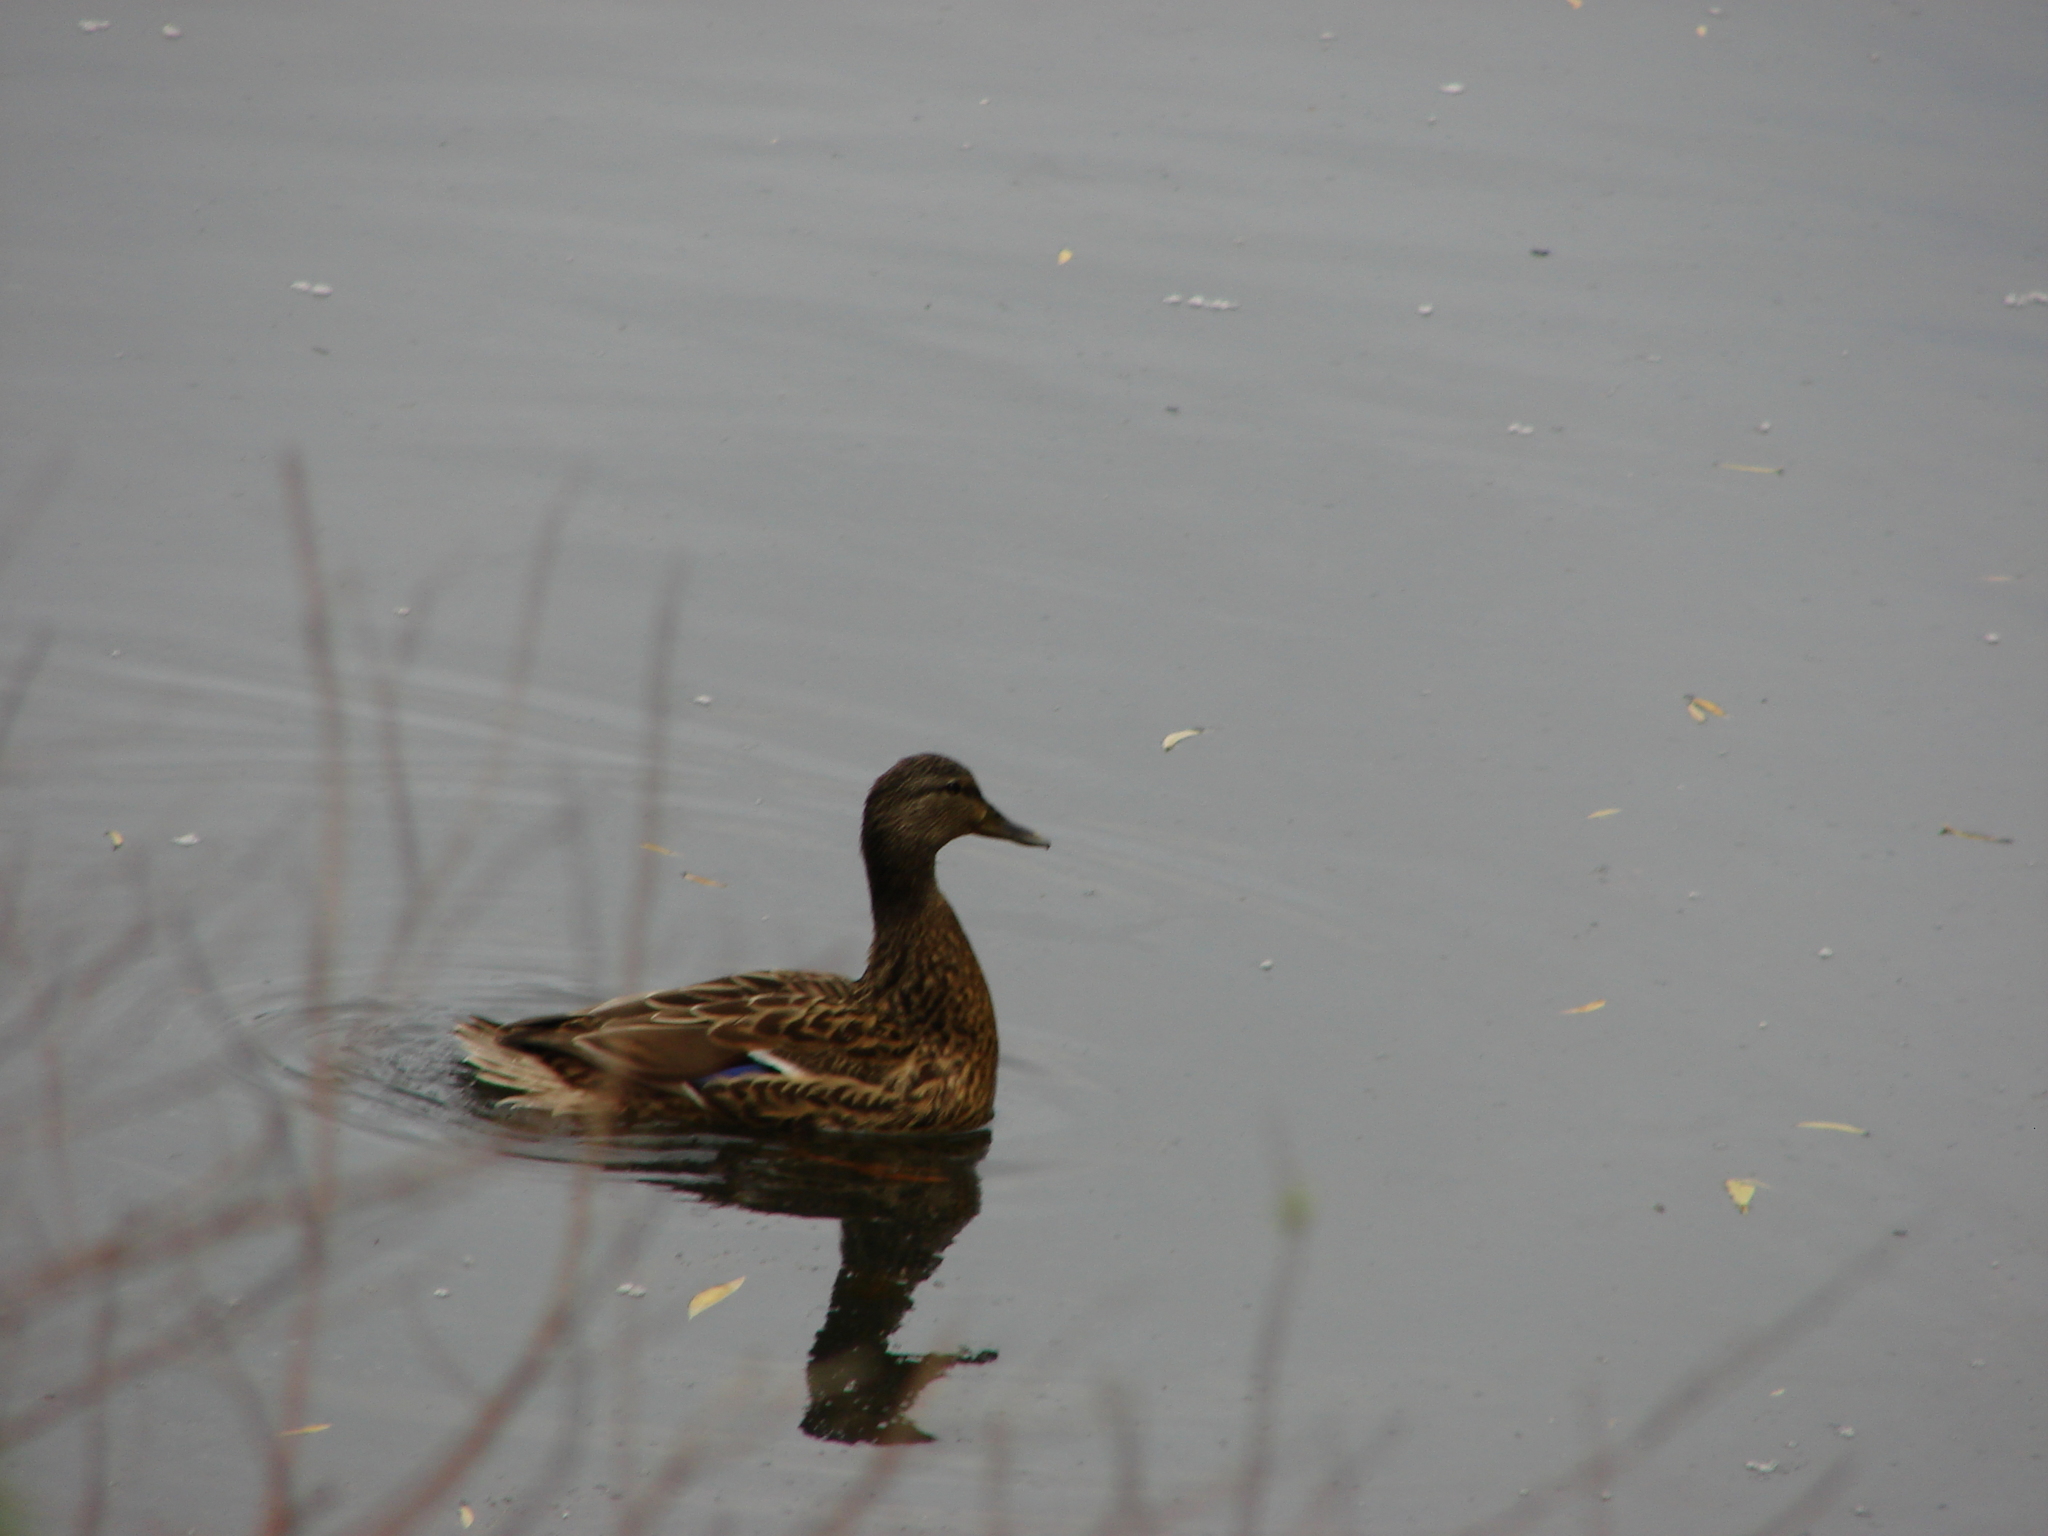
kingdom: Animalia
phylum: Chordata
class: Aves
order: Anseriformes
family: Anatidae
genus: Anas
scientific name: Anas platyrhynchos
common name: Mallard
